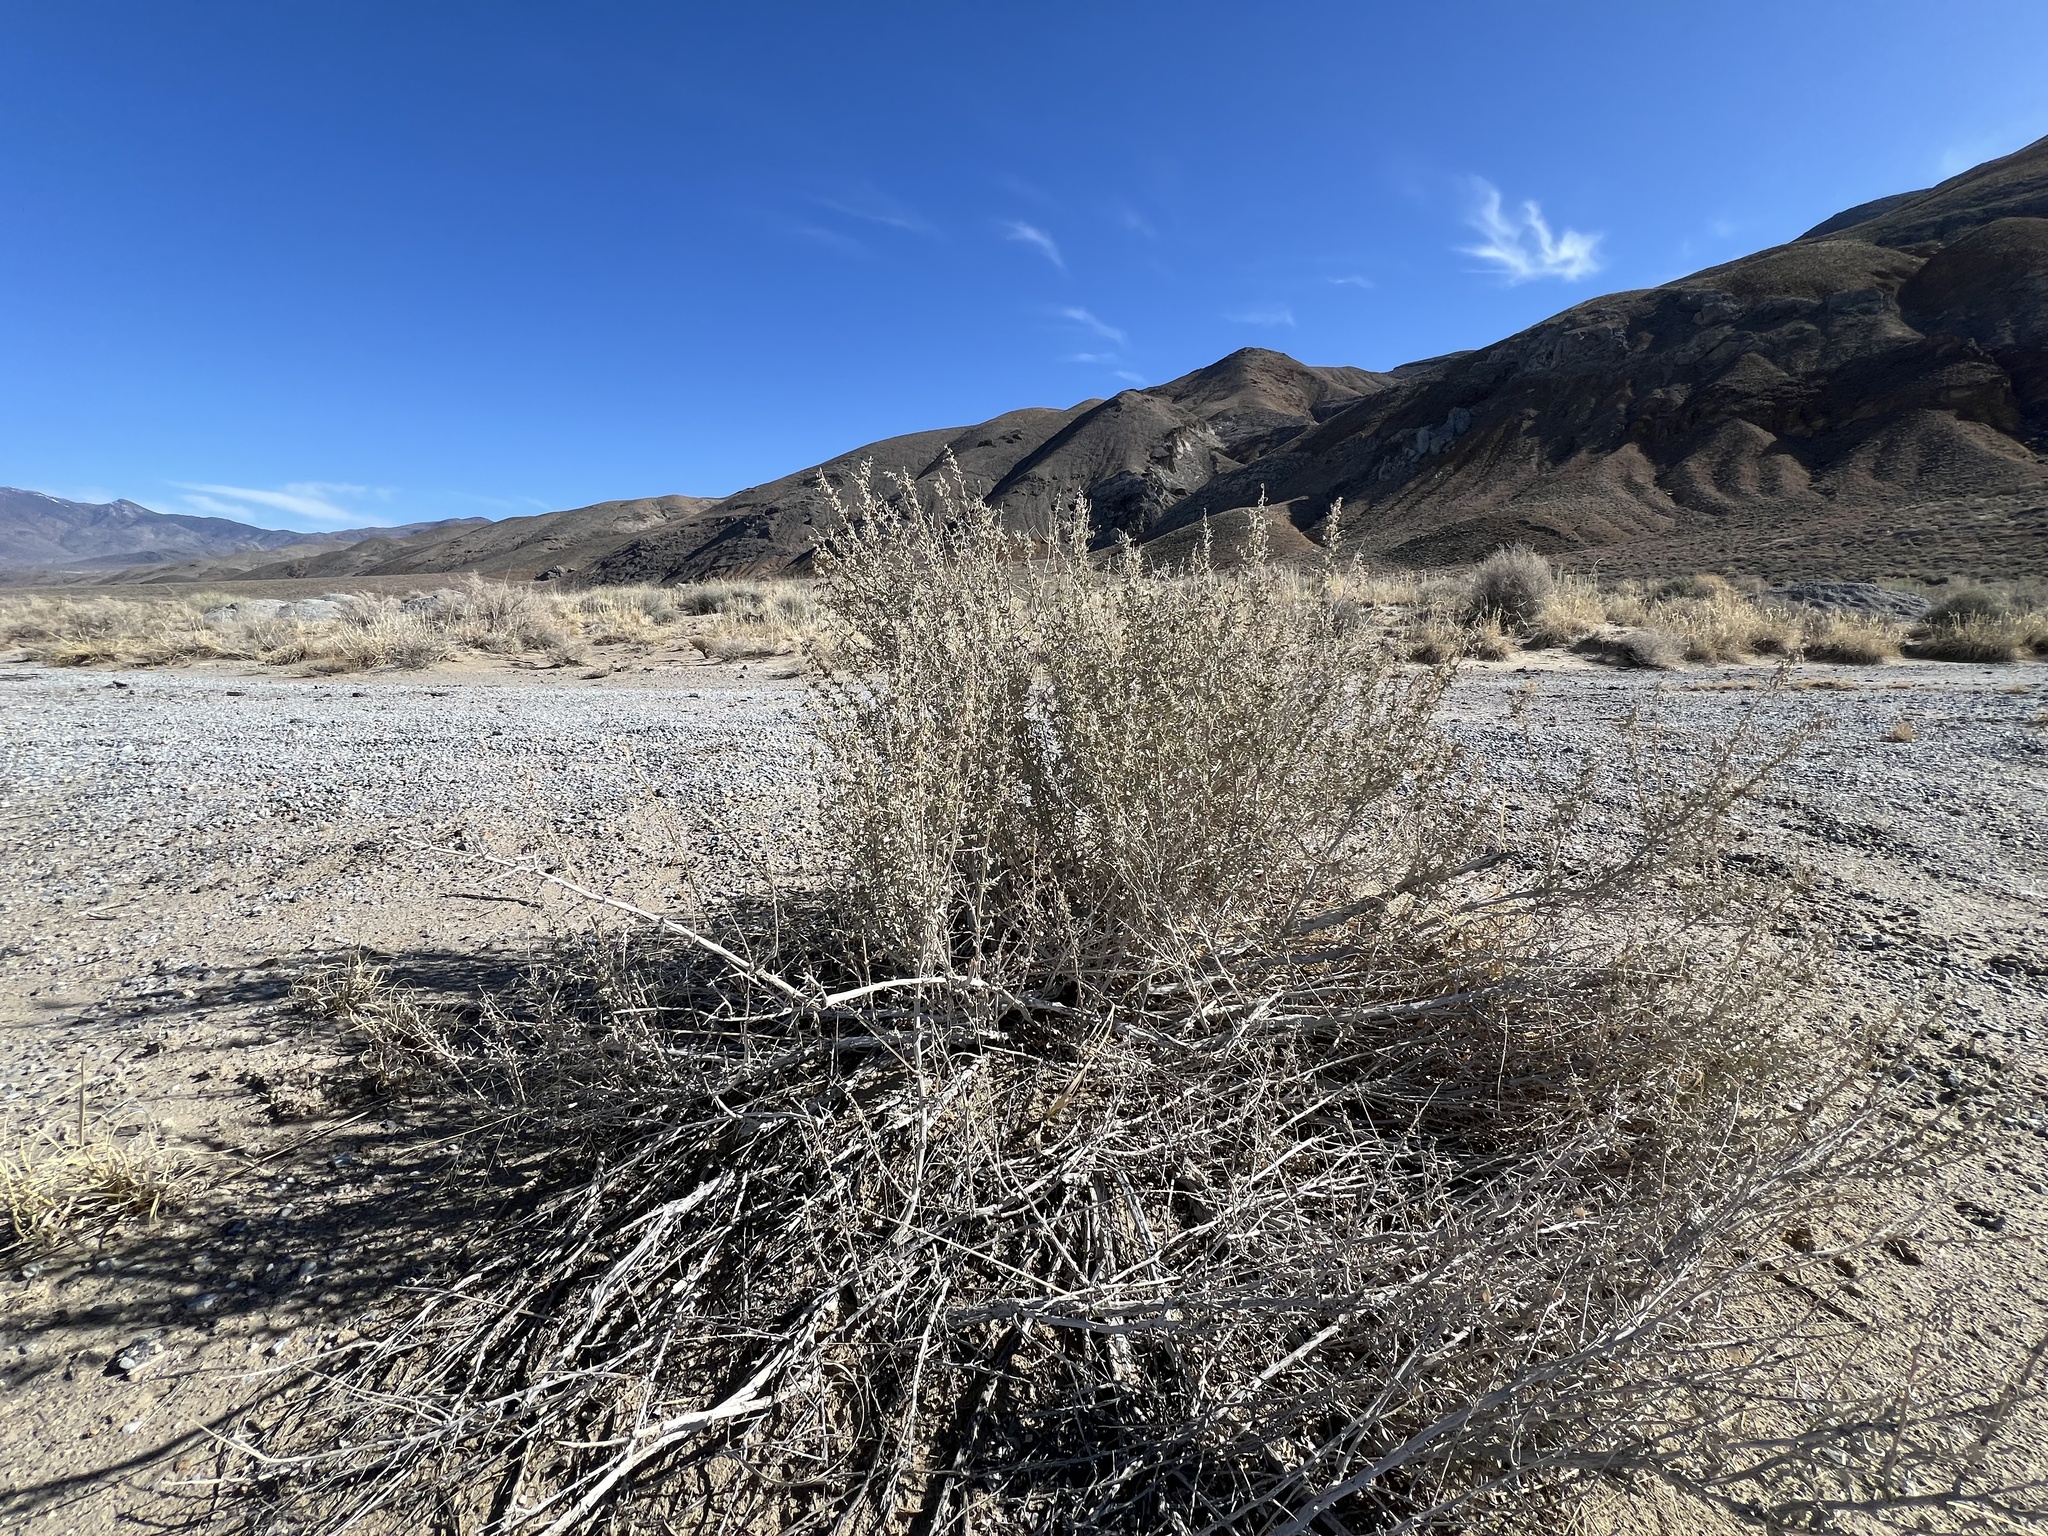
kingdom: Plantae
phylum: Tracheophyta
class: Magnoliopsida
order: Caryophyllales
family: Amaranthaceae
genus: Atriplex
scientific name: Atriplex torreyi
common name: Torrey's saltbush
